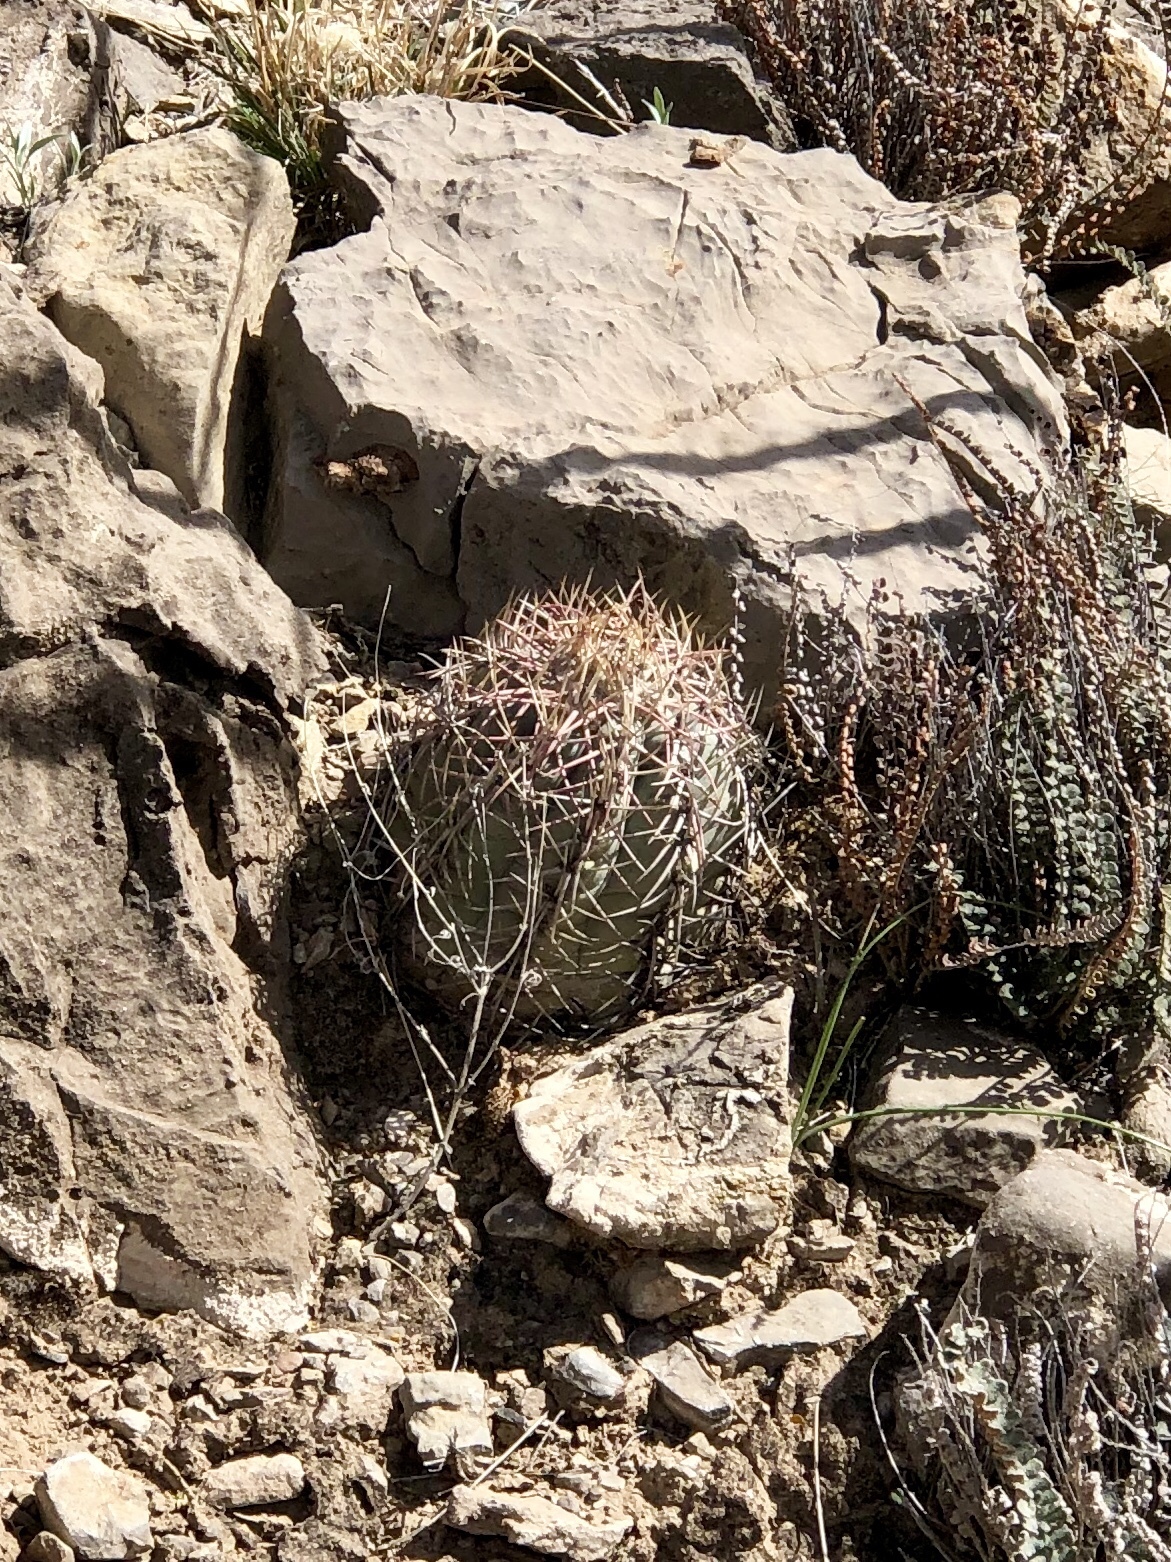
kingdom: Plantae
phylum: Tracheophyta
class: Magnoliopsida
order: Caryophyllales
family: Cactaceae
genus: Echinocactus
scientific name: Echinocactus horizonthalonius
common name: Devilshead
